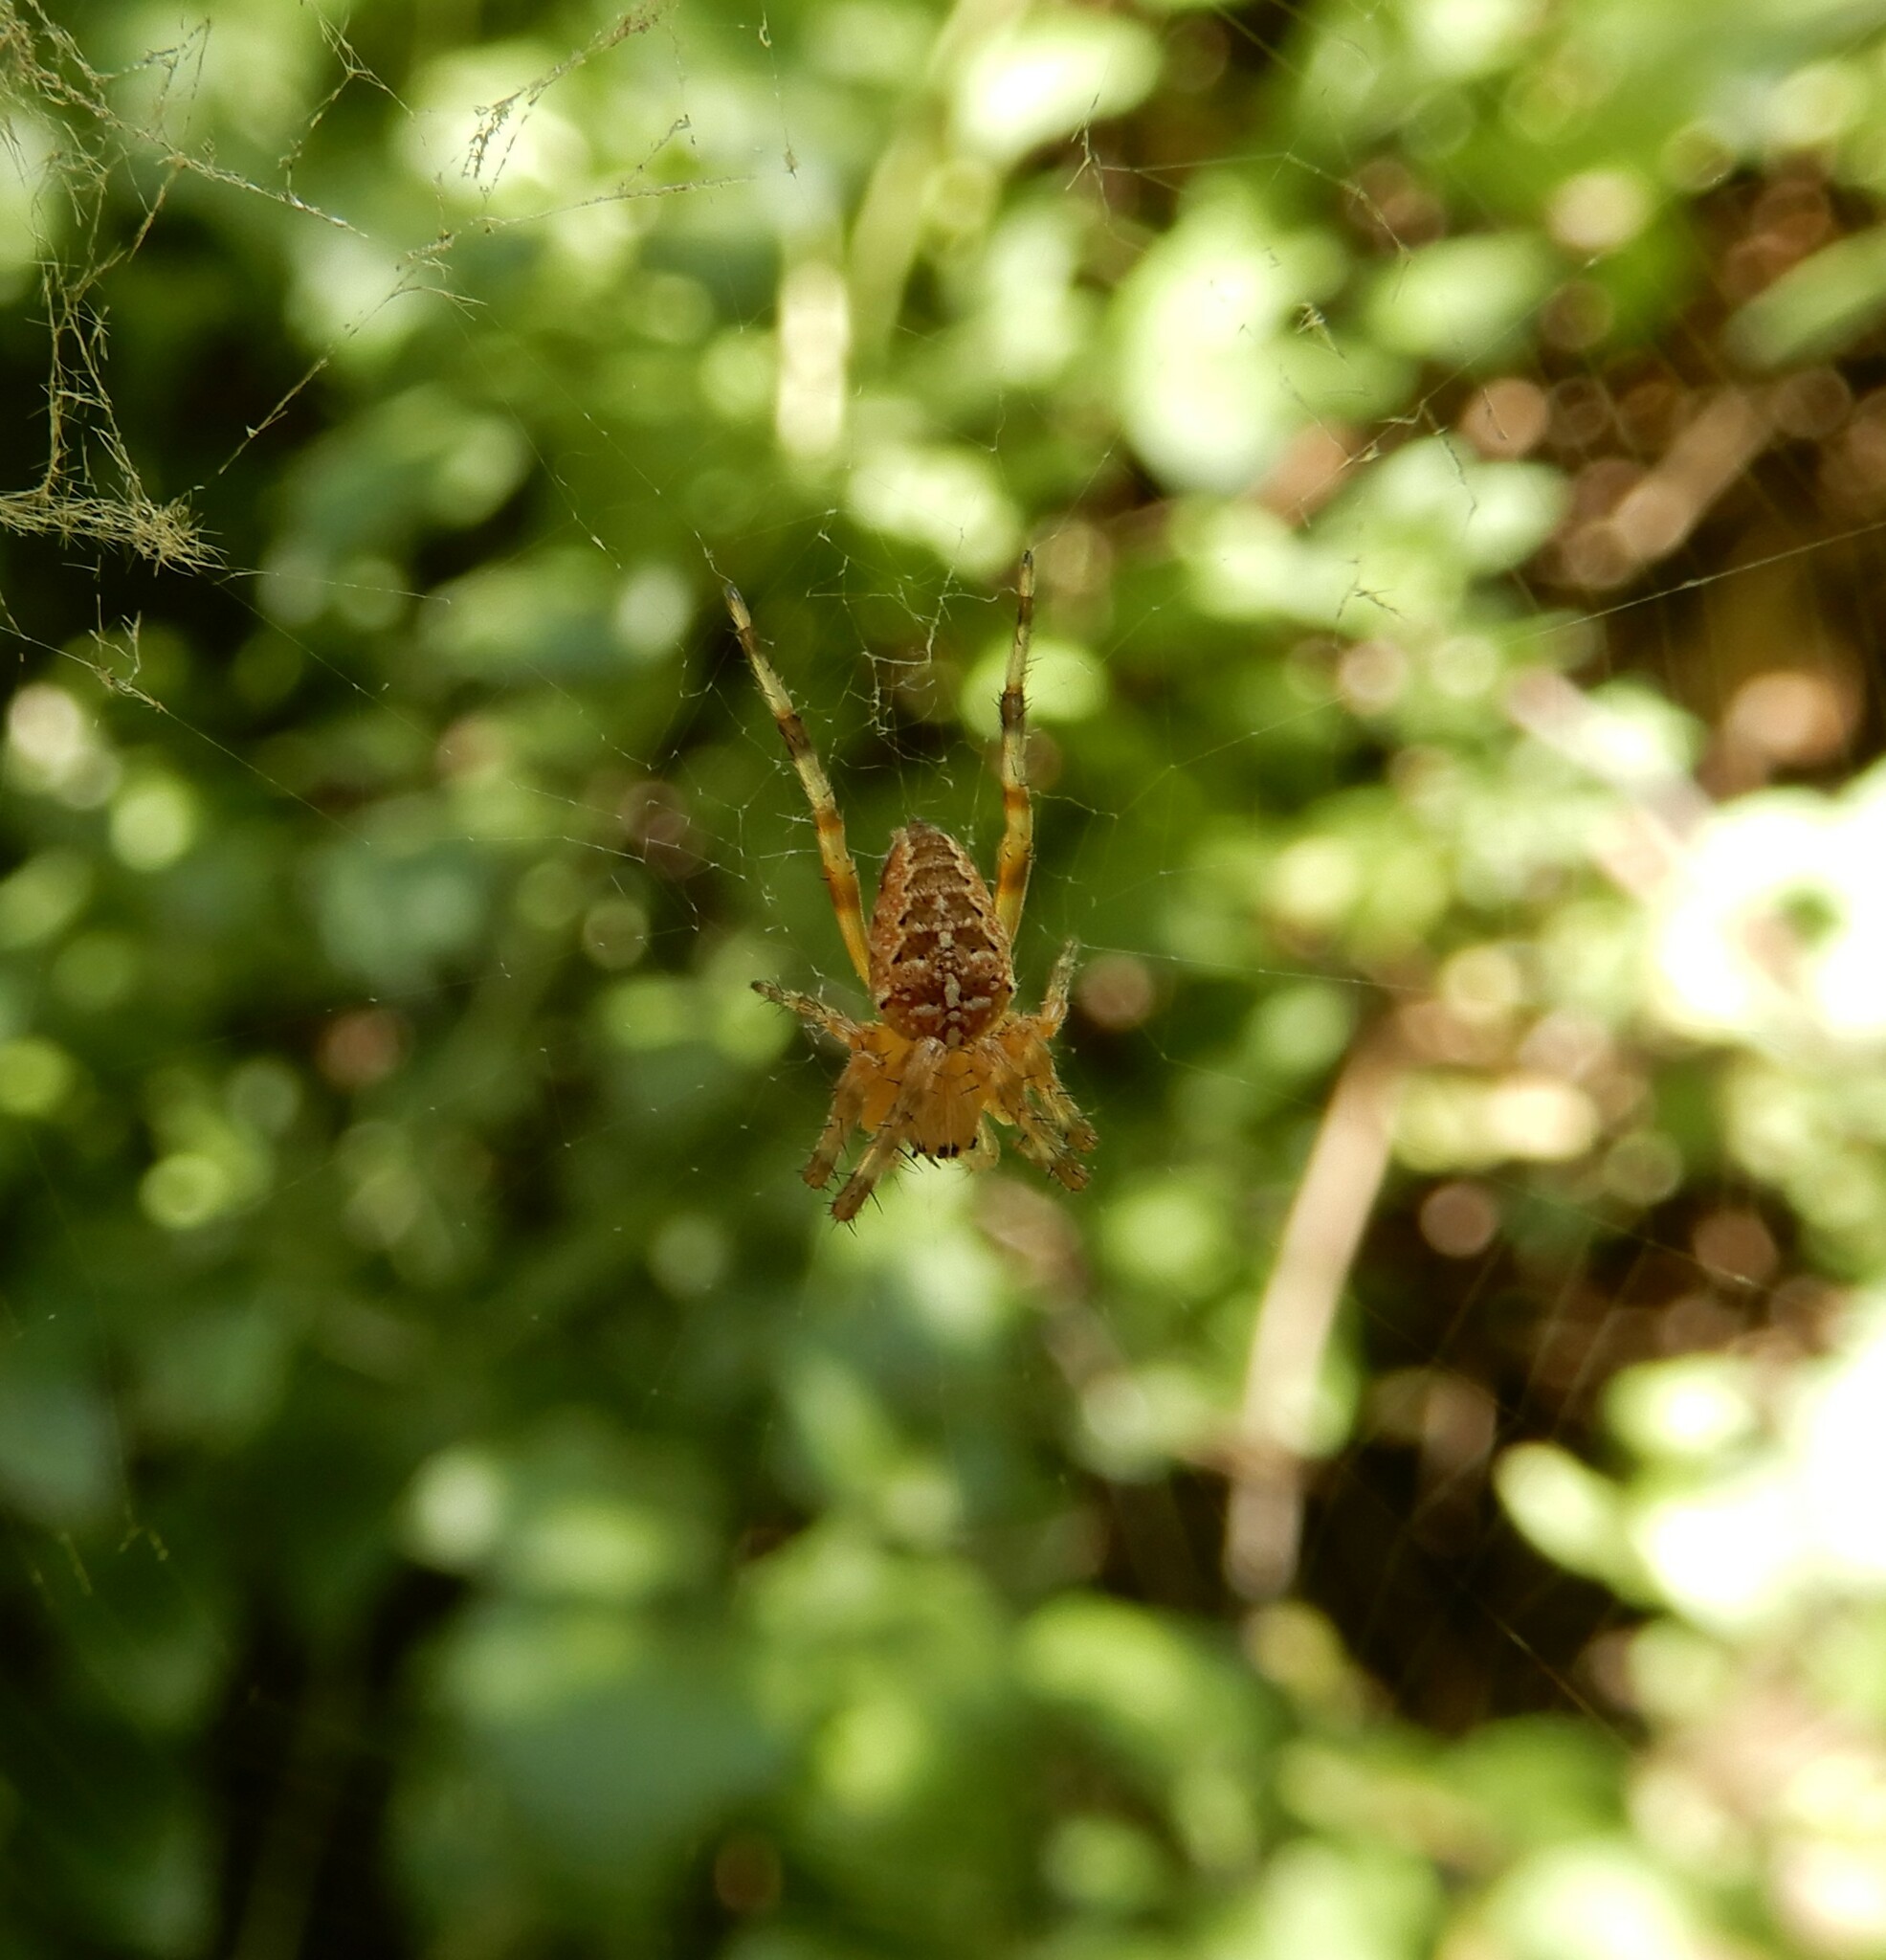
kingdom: Animalia
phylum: Arthropoda
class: Arachnida
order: Araneae
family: Araneidae
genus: Araneus
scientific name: Araneus diadematus
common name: Cross orbweaver
